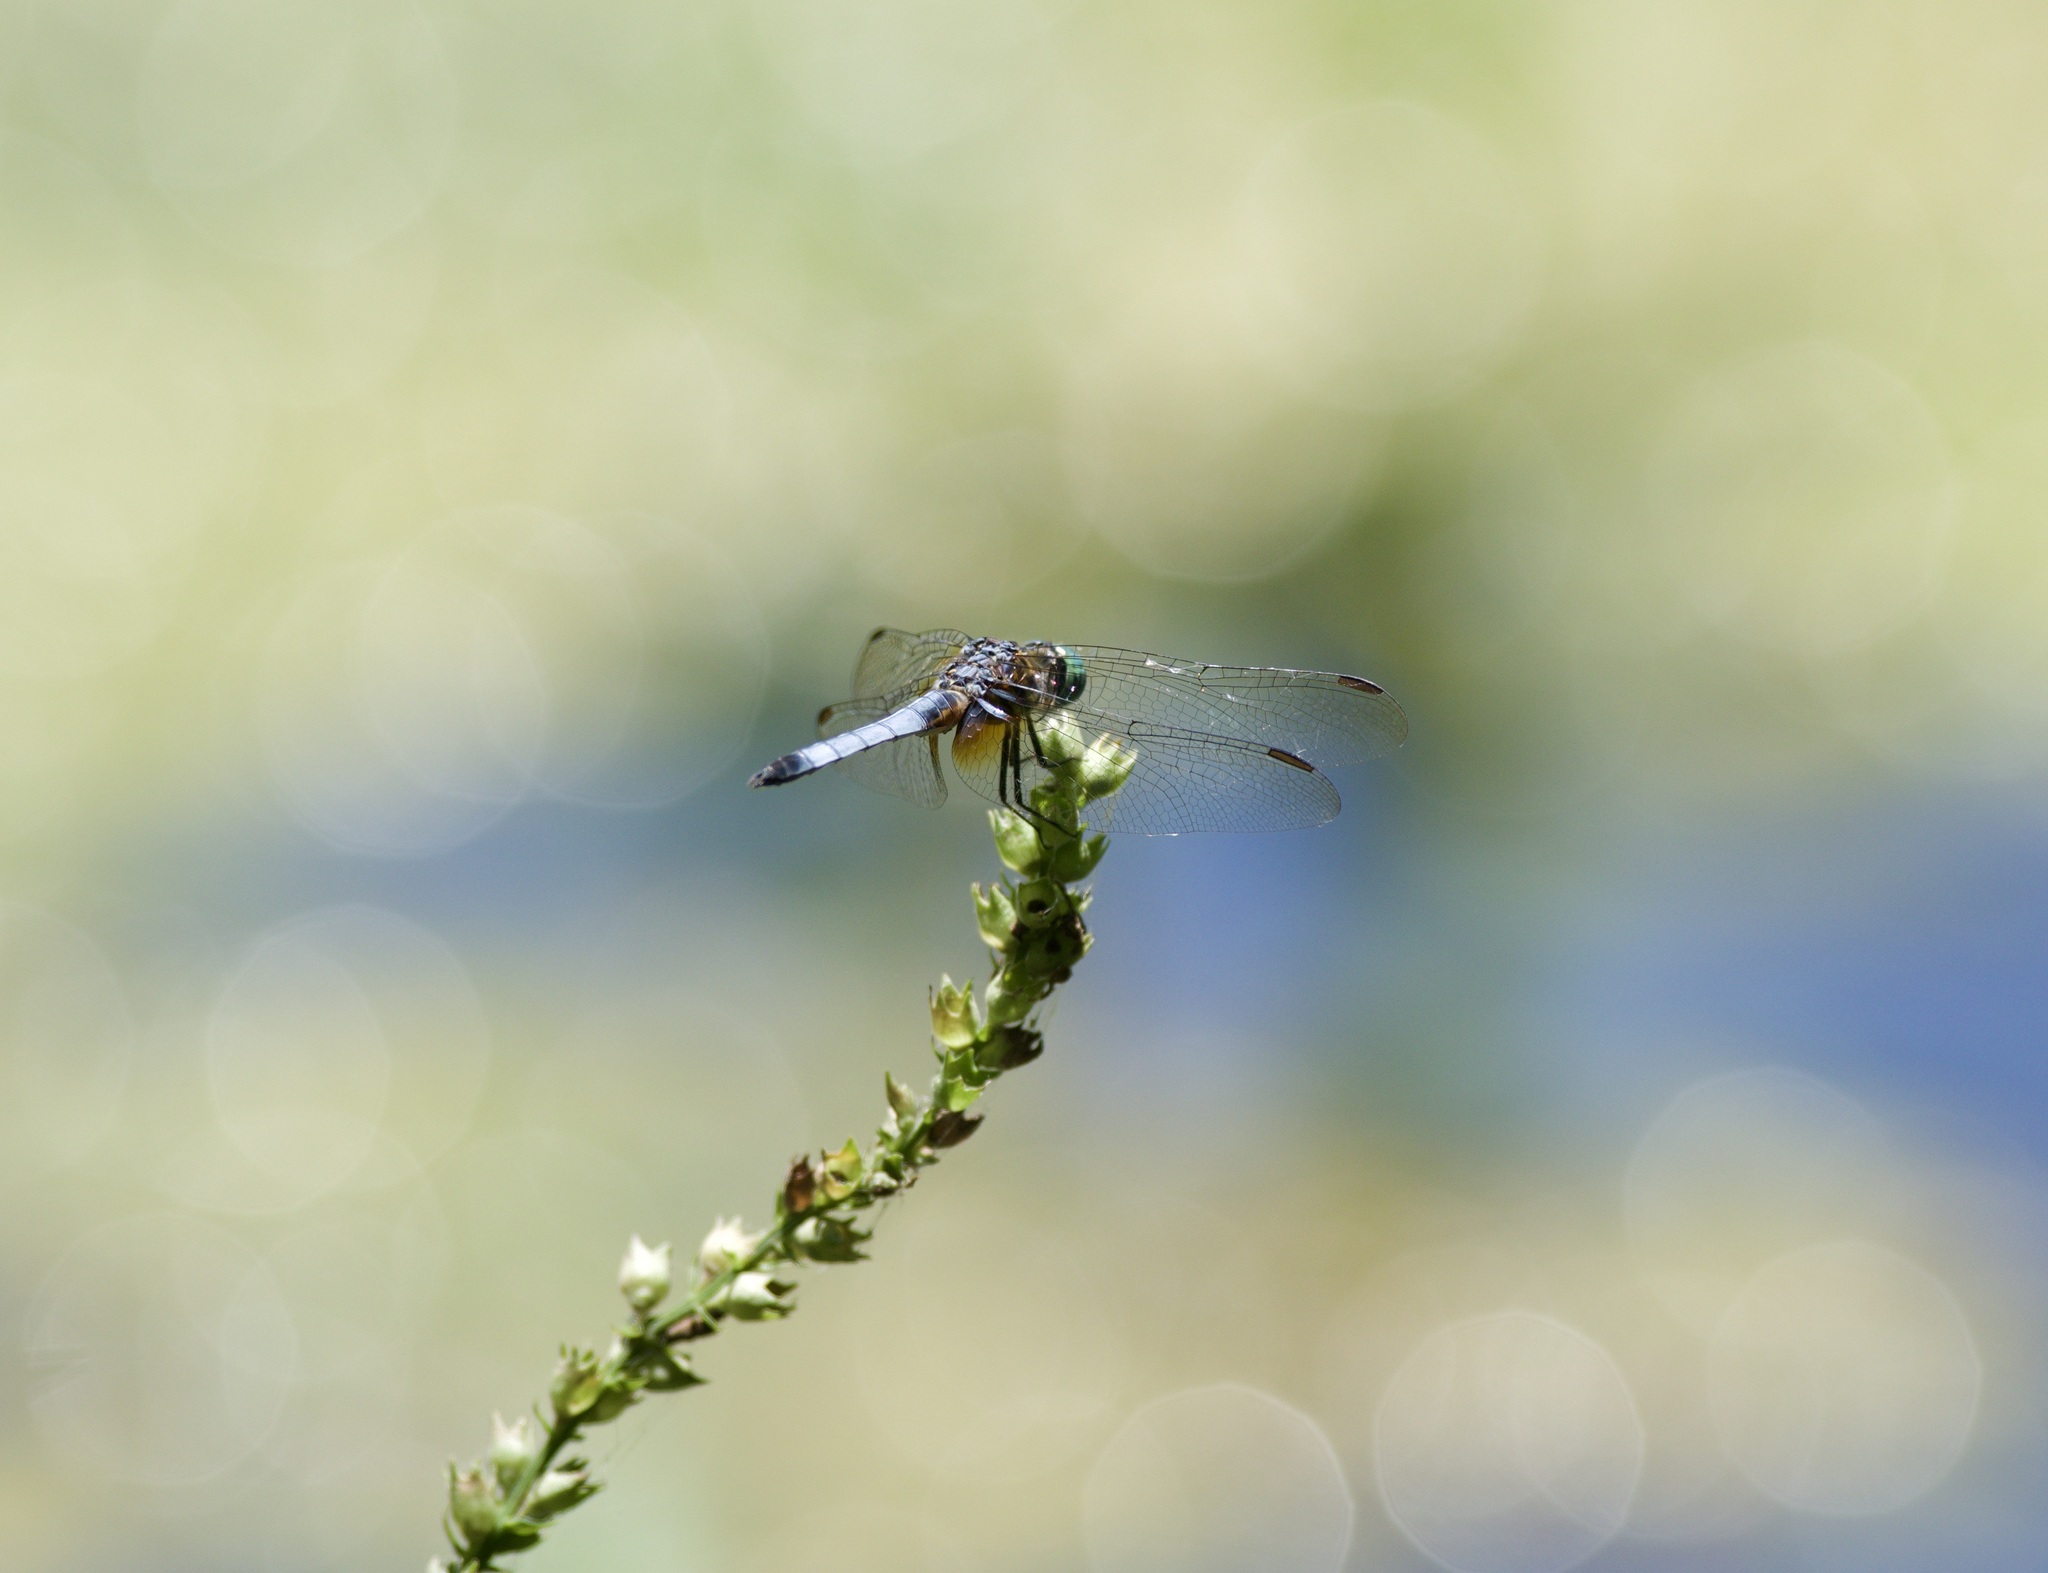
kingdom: Animalia
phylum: Arthropoda
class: Insecta
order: Odonata
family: Libellulidae
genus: Pachydiplax
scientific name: Pachydiplax longipennis
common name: Blue dasher
